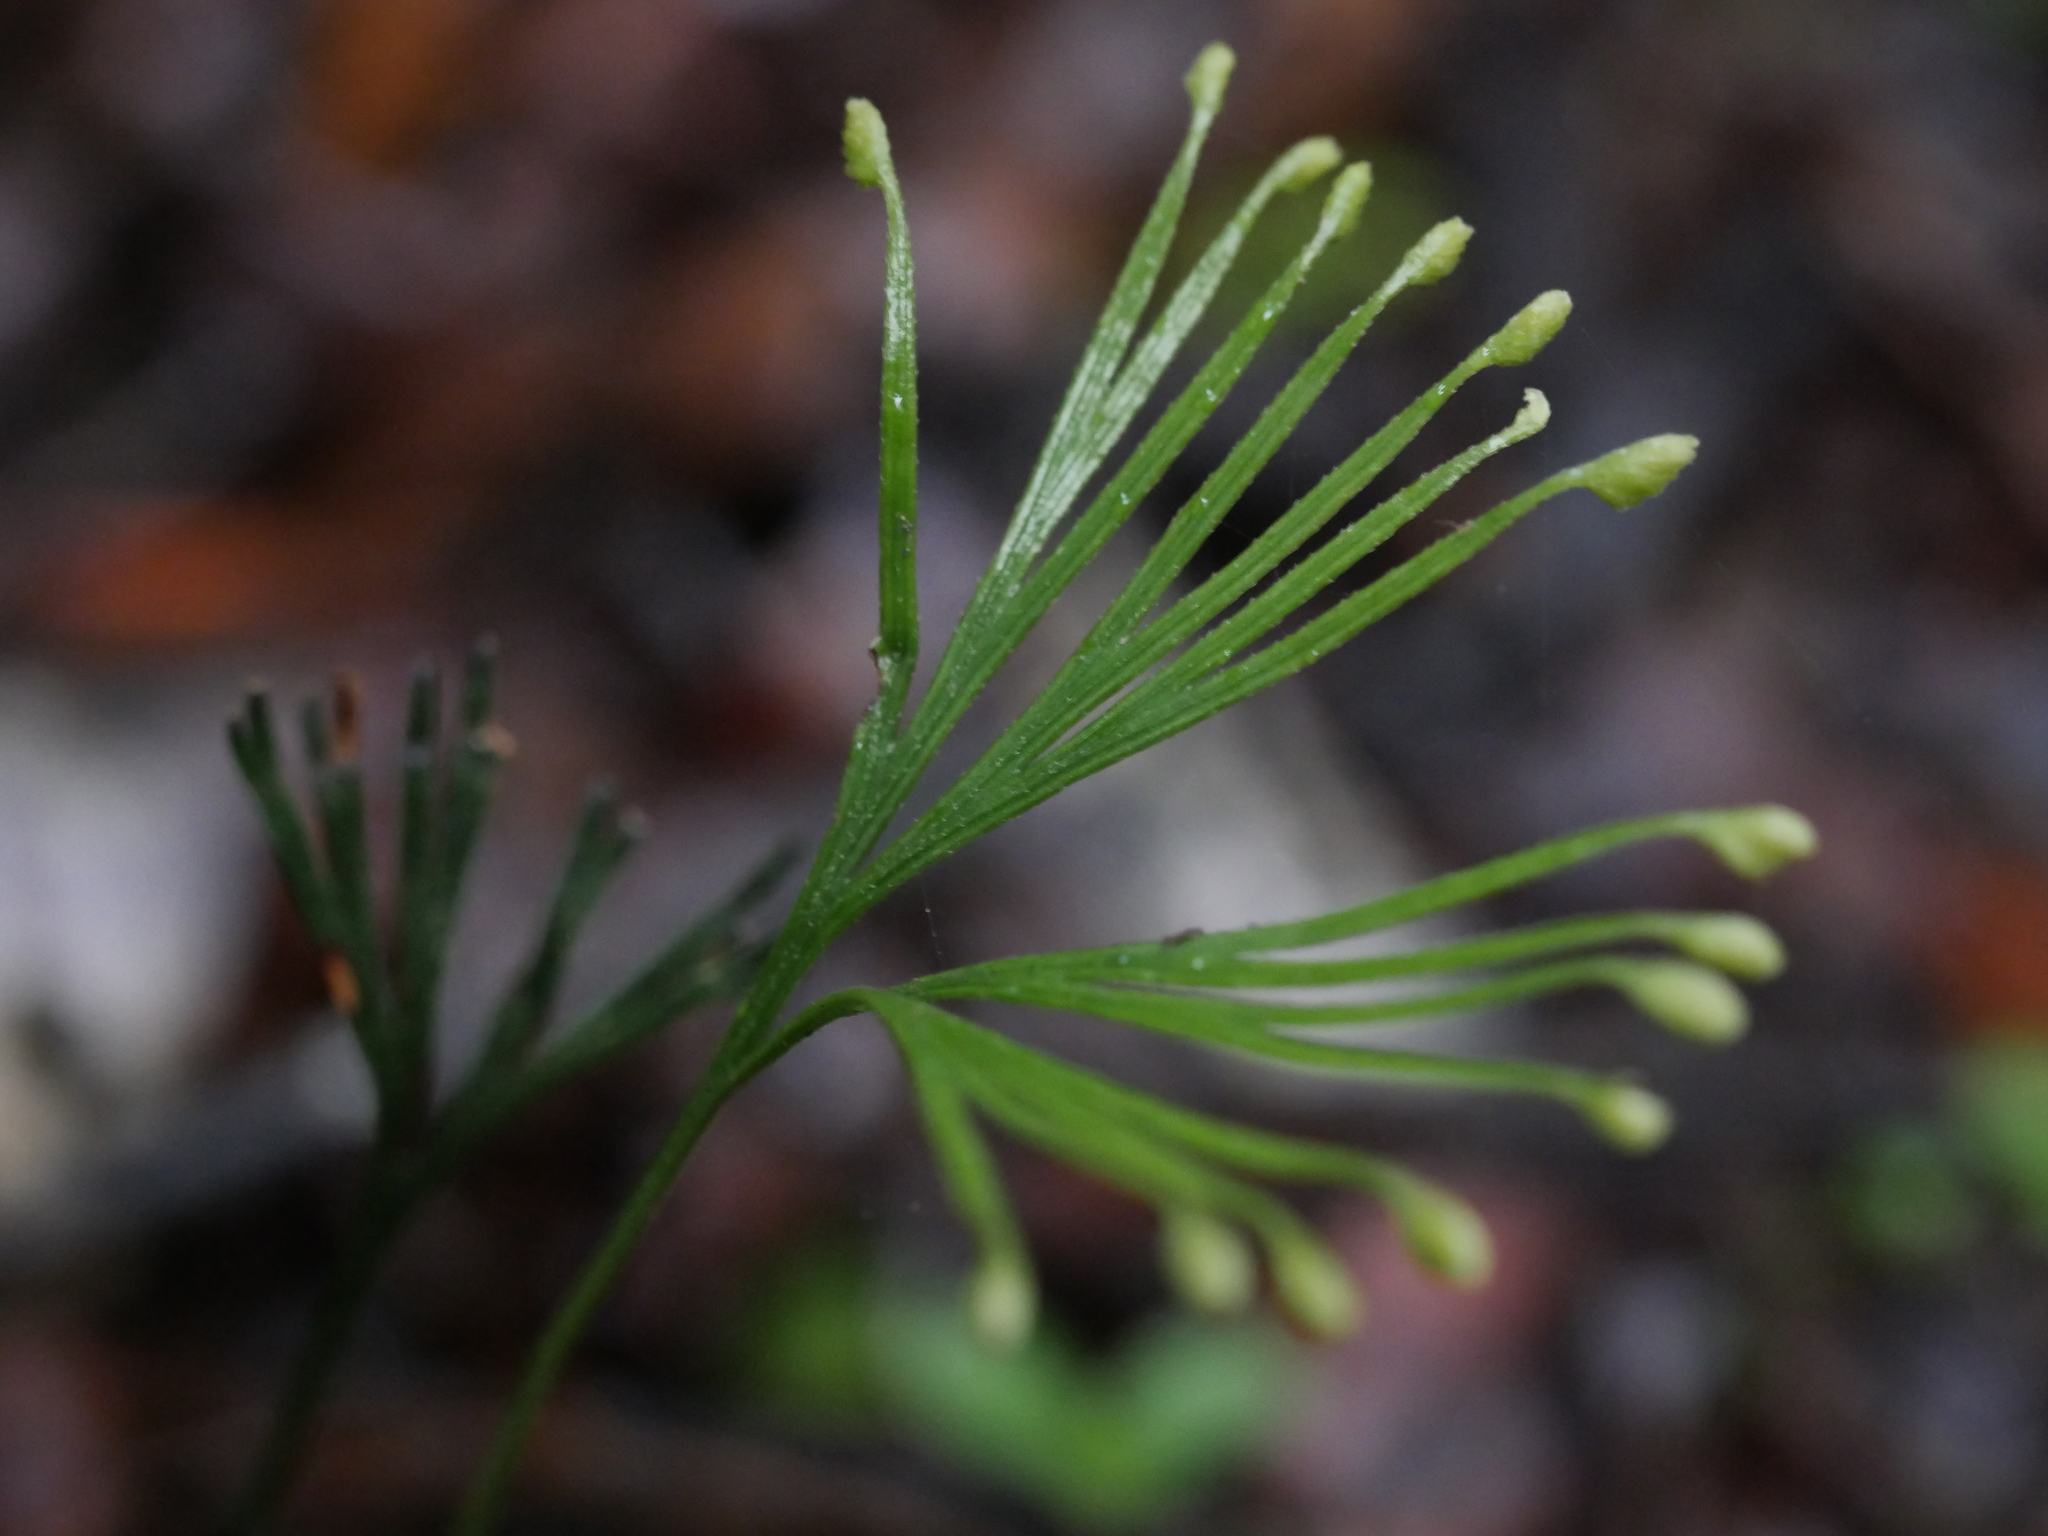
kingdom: Plantae
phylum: Tracheophyta
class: Polypodiopsida
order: Schizaeales
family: Schizaeaceae
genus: Schizaea
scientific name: Schizaea dichotoma
